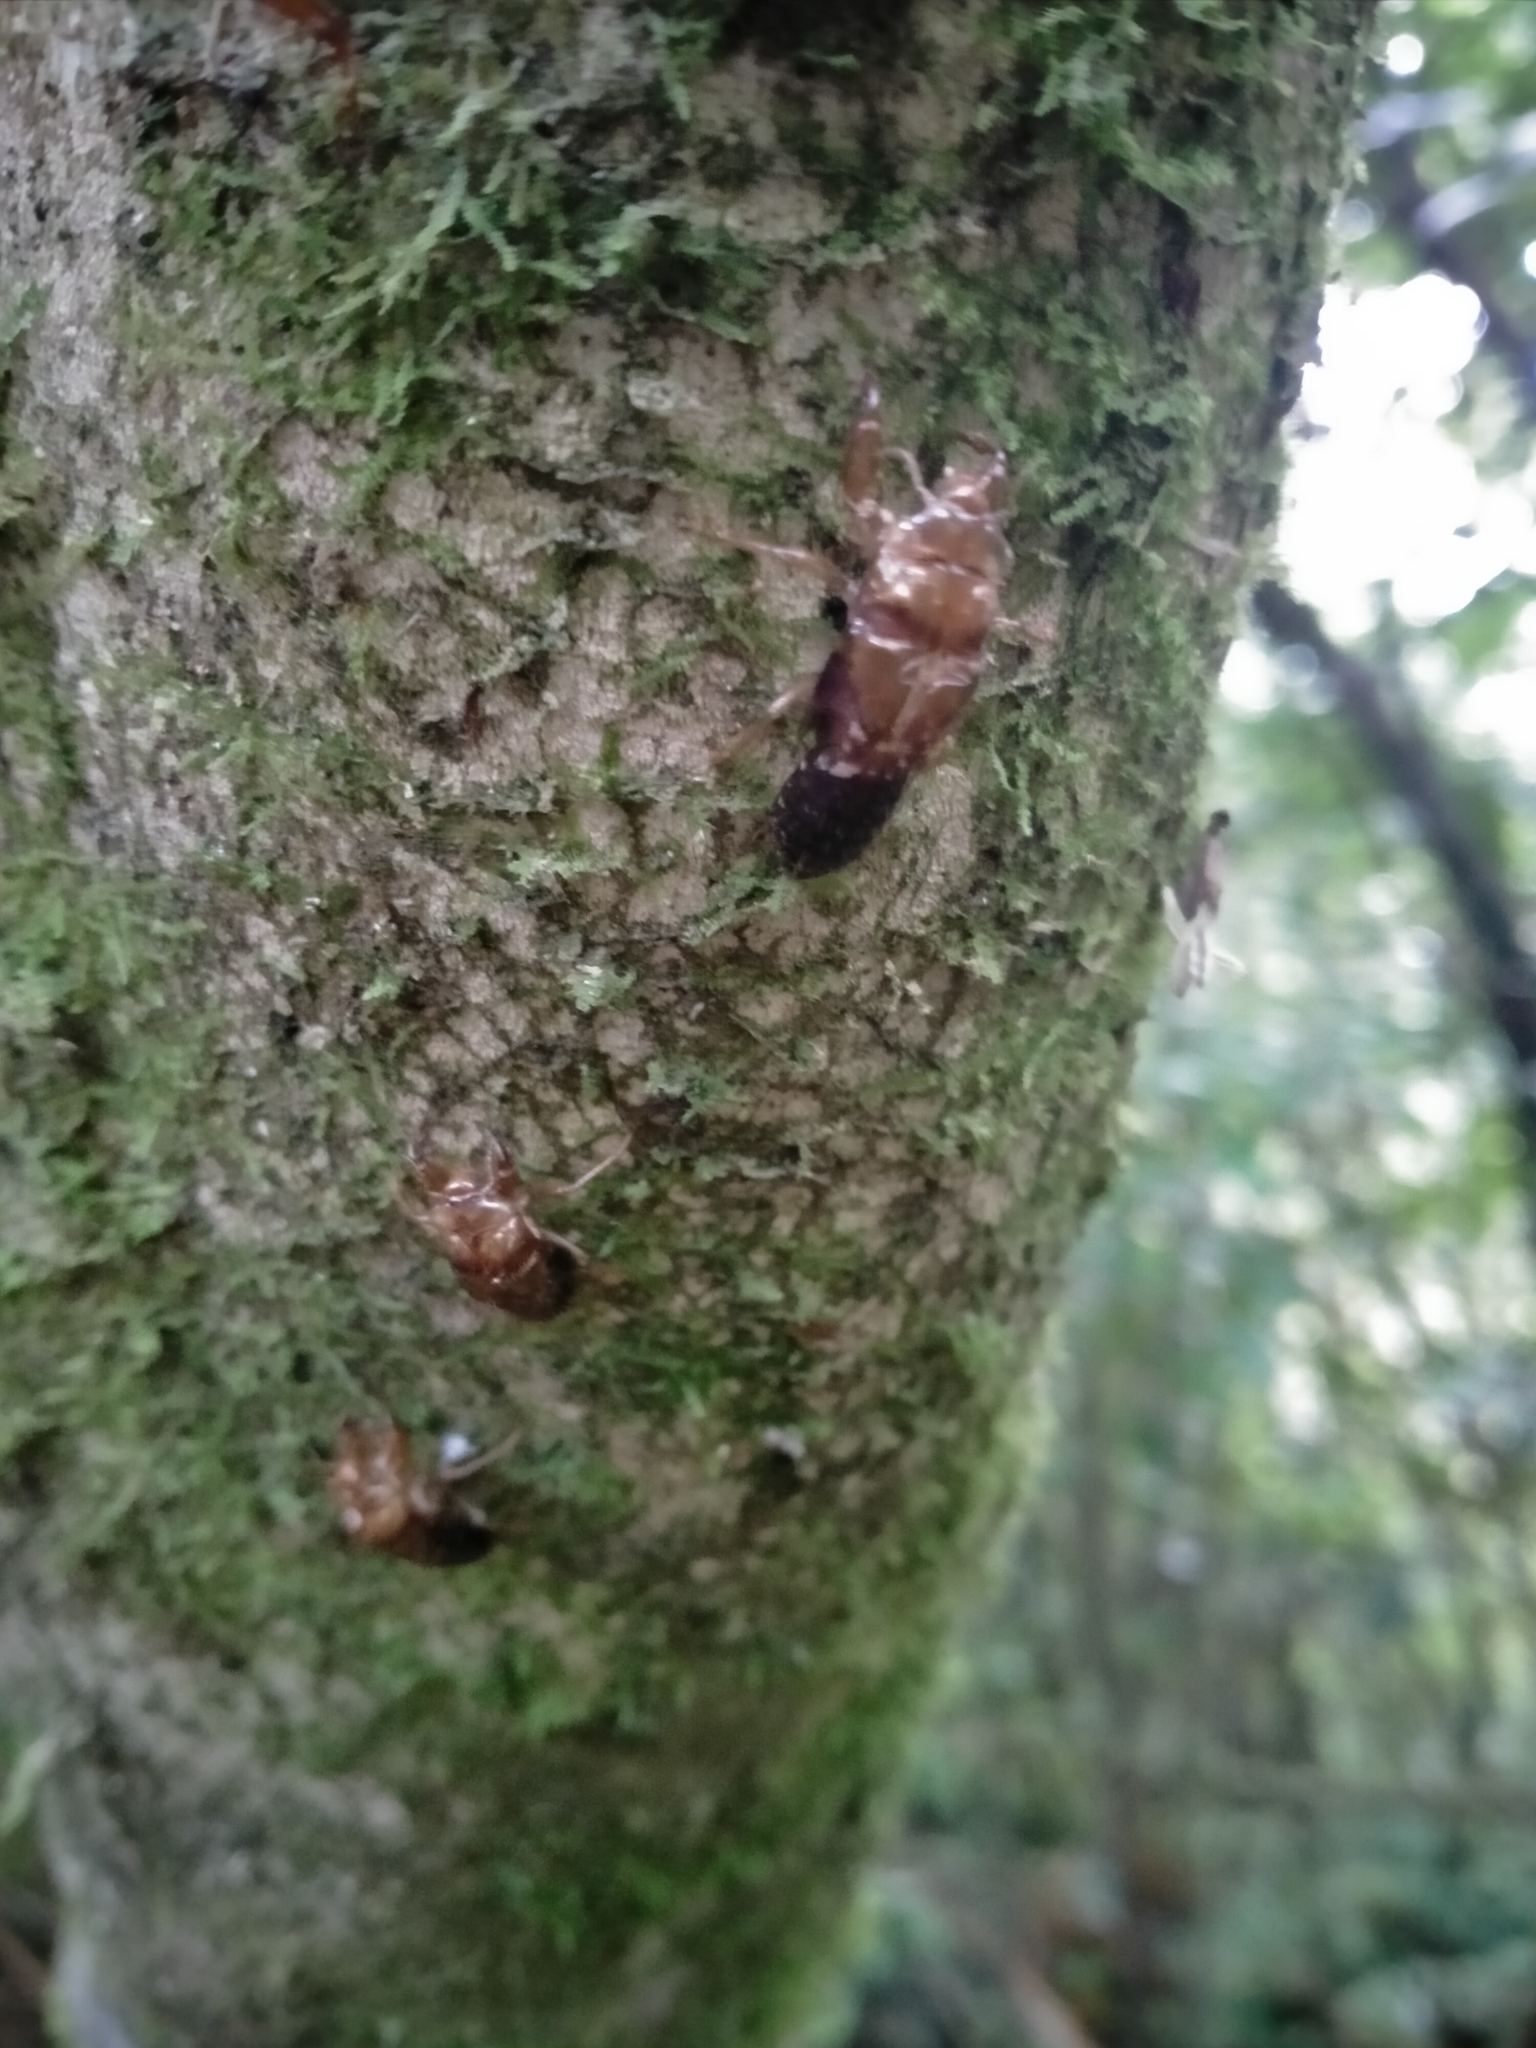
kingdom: Animalia
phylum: Arthropoda
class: Insecta
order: Hemiptera
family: Cicadidae
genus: Amphipsalta
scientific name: Amphipsalta zelandica
